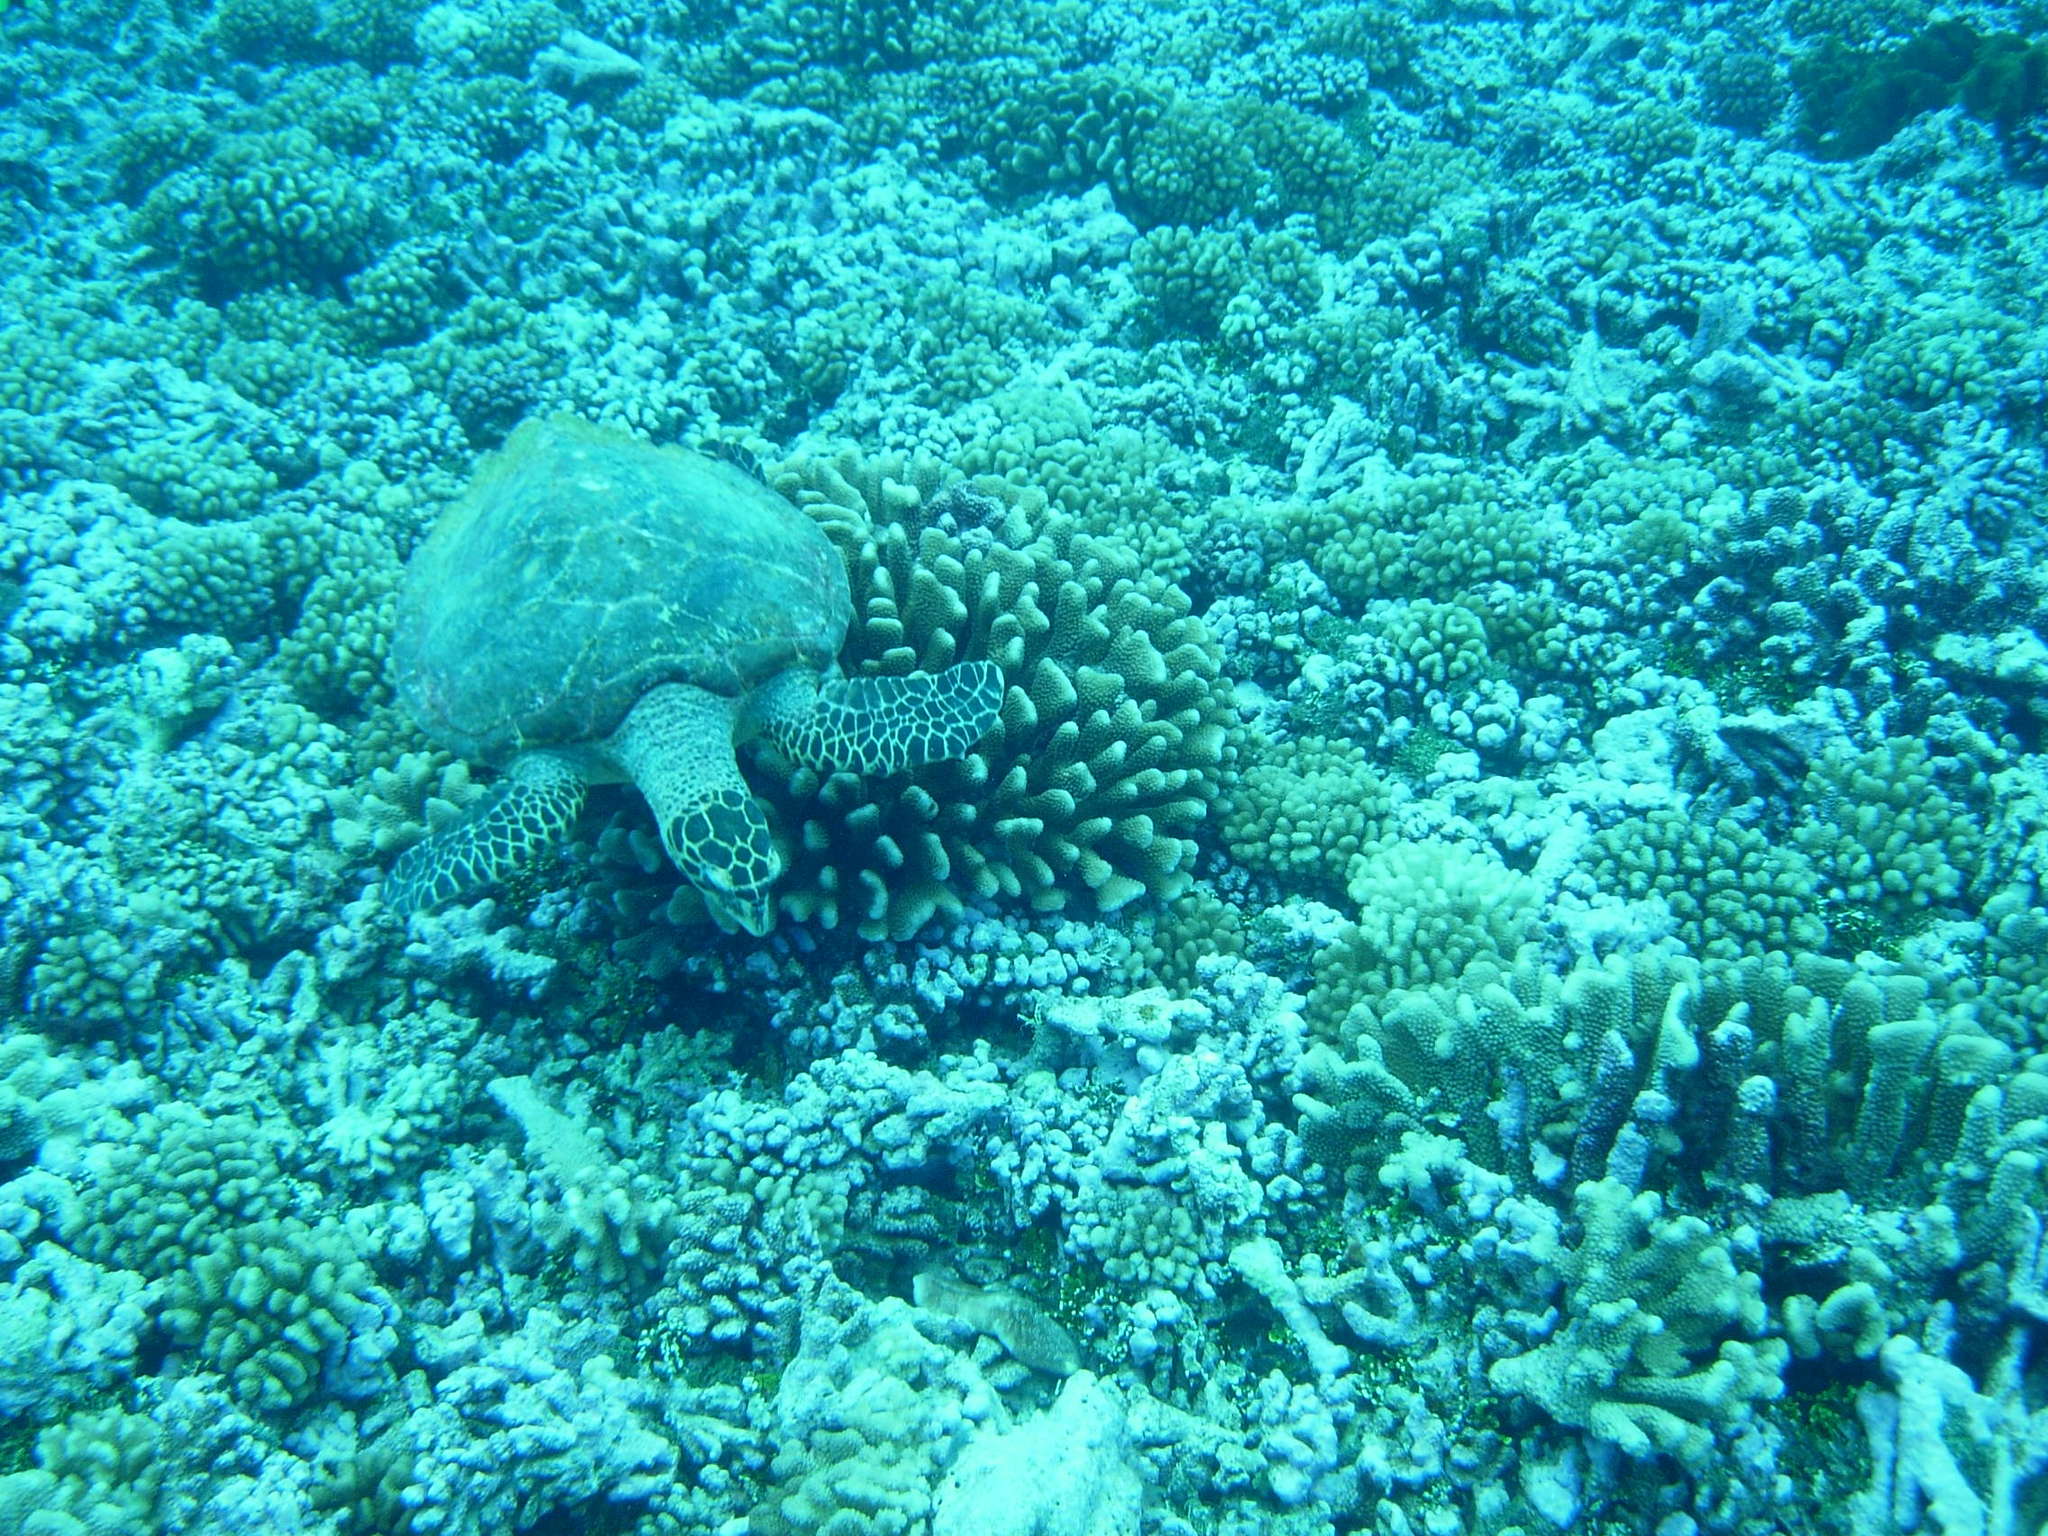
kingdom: Animalia
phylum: Chordata
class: Testudines
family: Cheloniidae
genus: Eretmochelys
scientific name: Eretmochelys imbricata
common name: Hawksbill turtle
